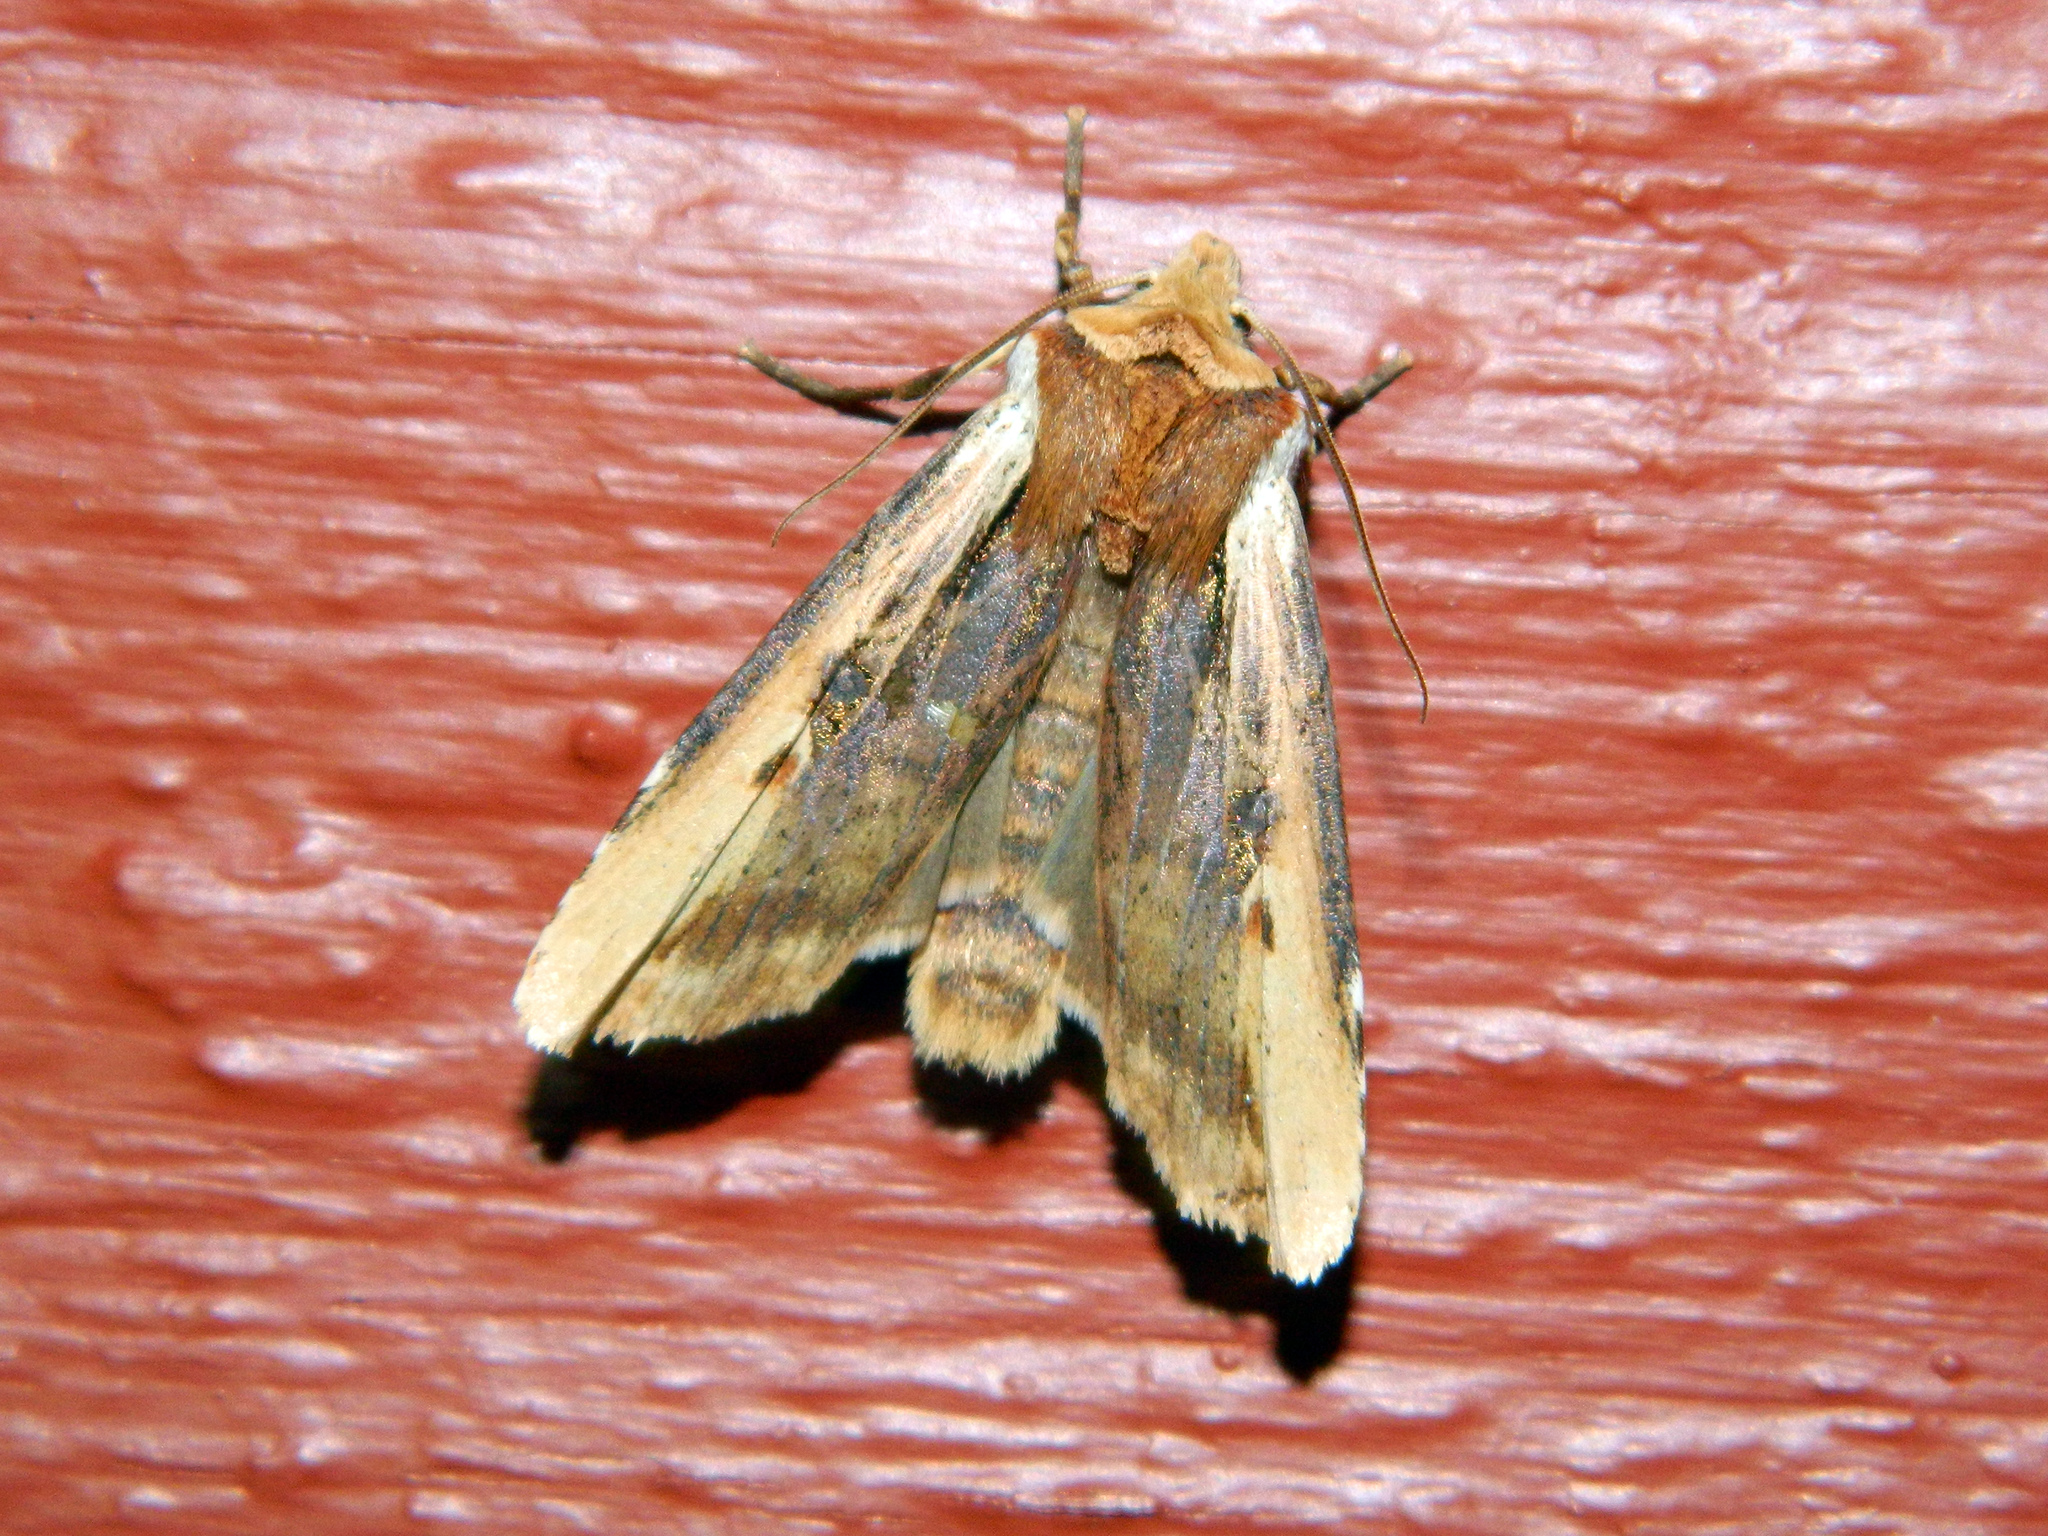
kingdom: Animalia
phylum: Arthropoda
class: Insecta
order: Lepidoptera
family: Noctuidae
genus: Xylena
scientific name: Xylena curvimacula
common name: Dot-and-dash swordgrass moth
